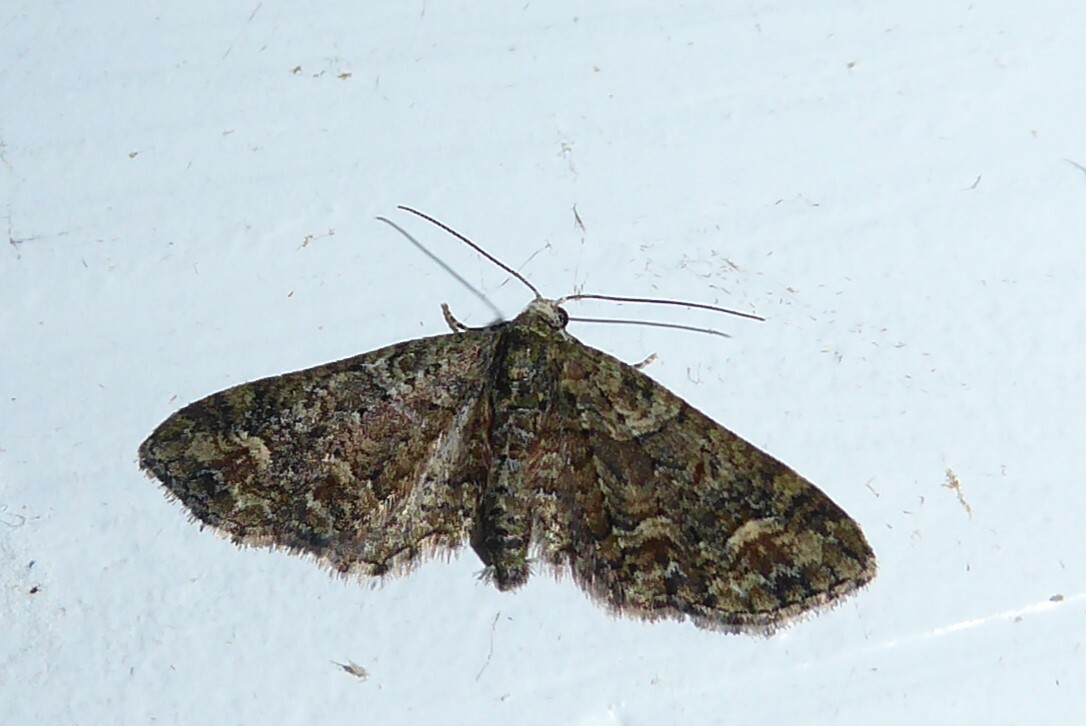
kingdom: Animalia
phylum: Arthropoda
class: Insecta
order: Lepidoptera
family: Geometridae
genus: Idaea
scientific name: Idaea mutanda
